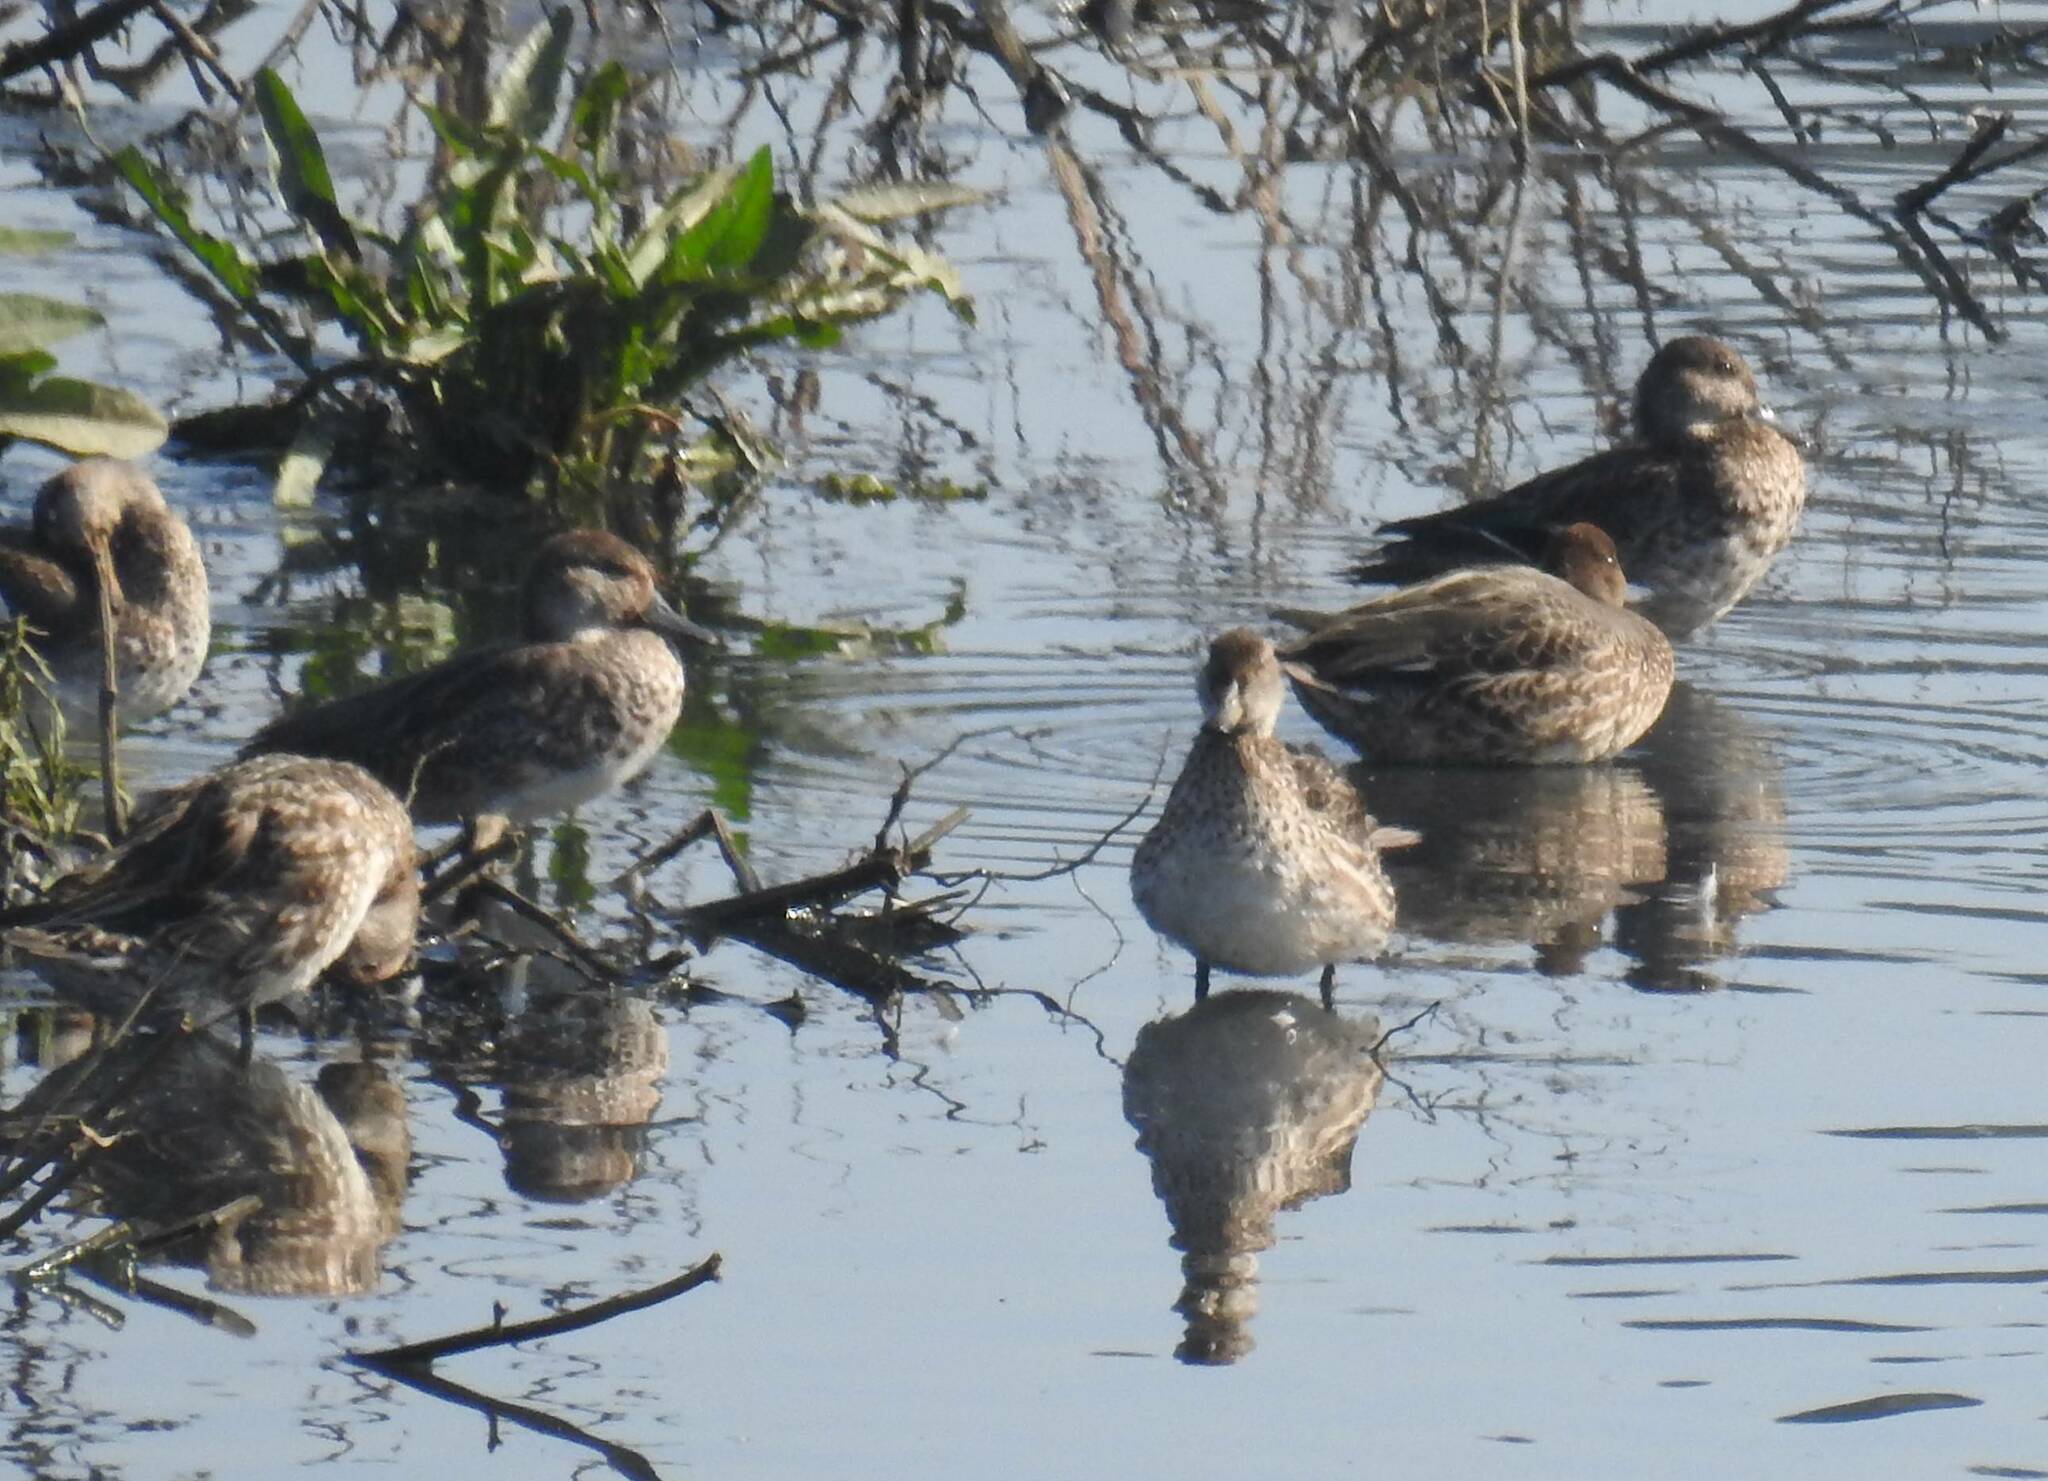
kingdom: Animalia
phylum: Chordata
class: Aves
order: Anseriformes
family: Anatidae
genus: Anas
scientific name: Anas crecca
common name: Eurasian teal
